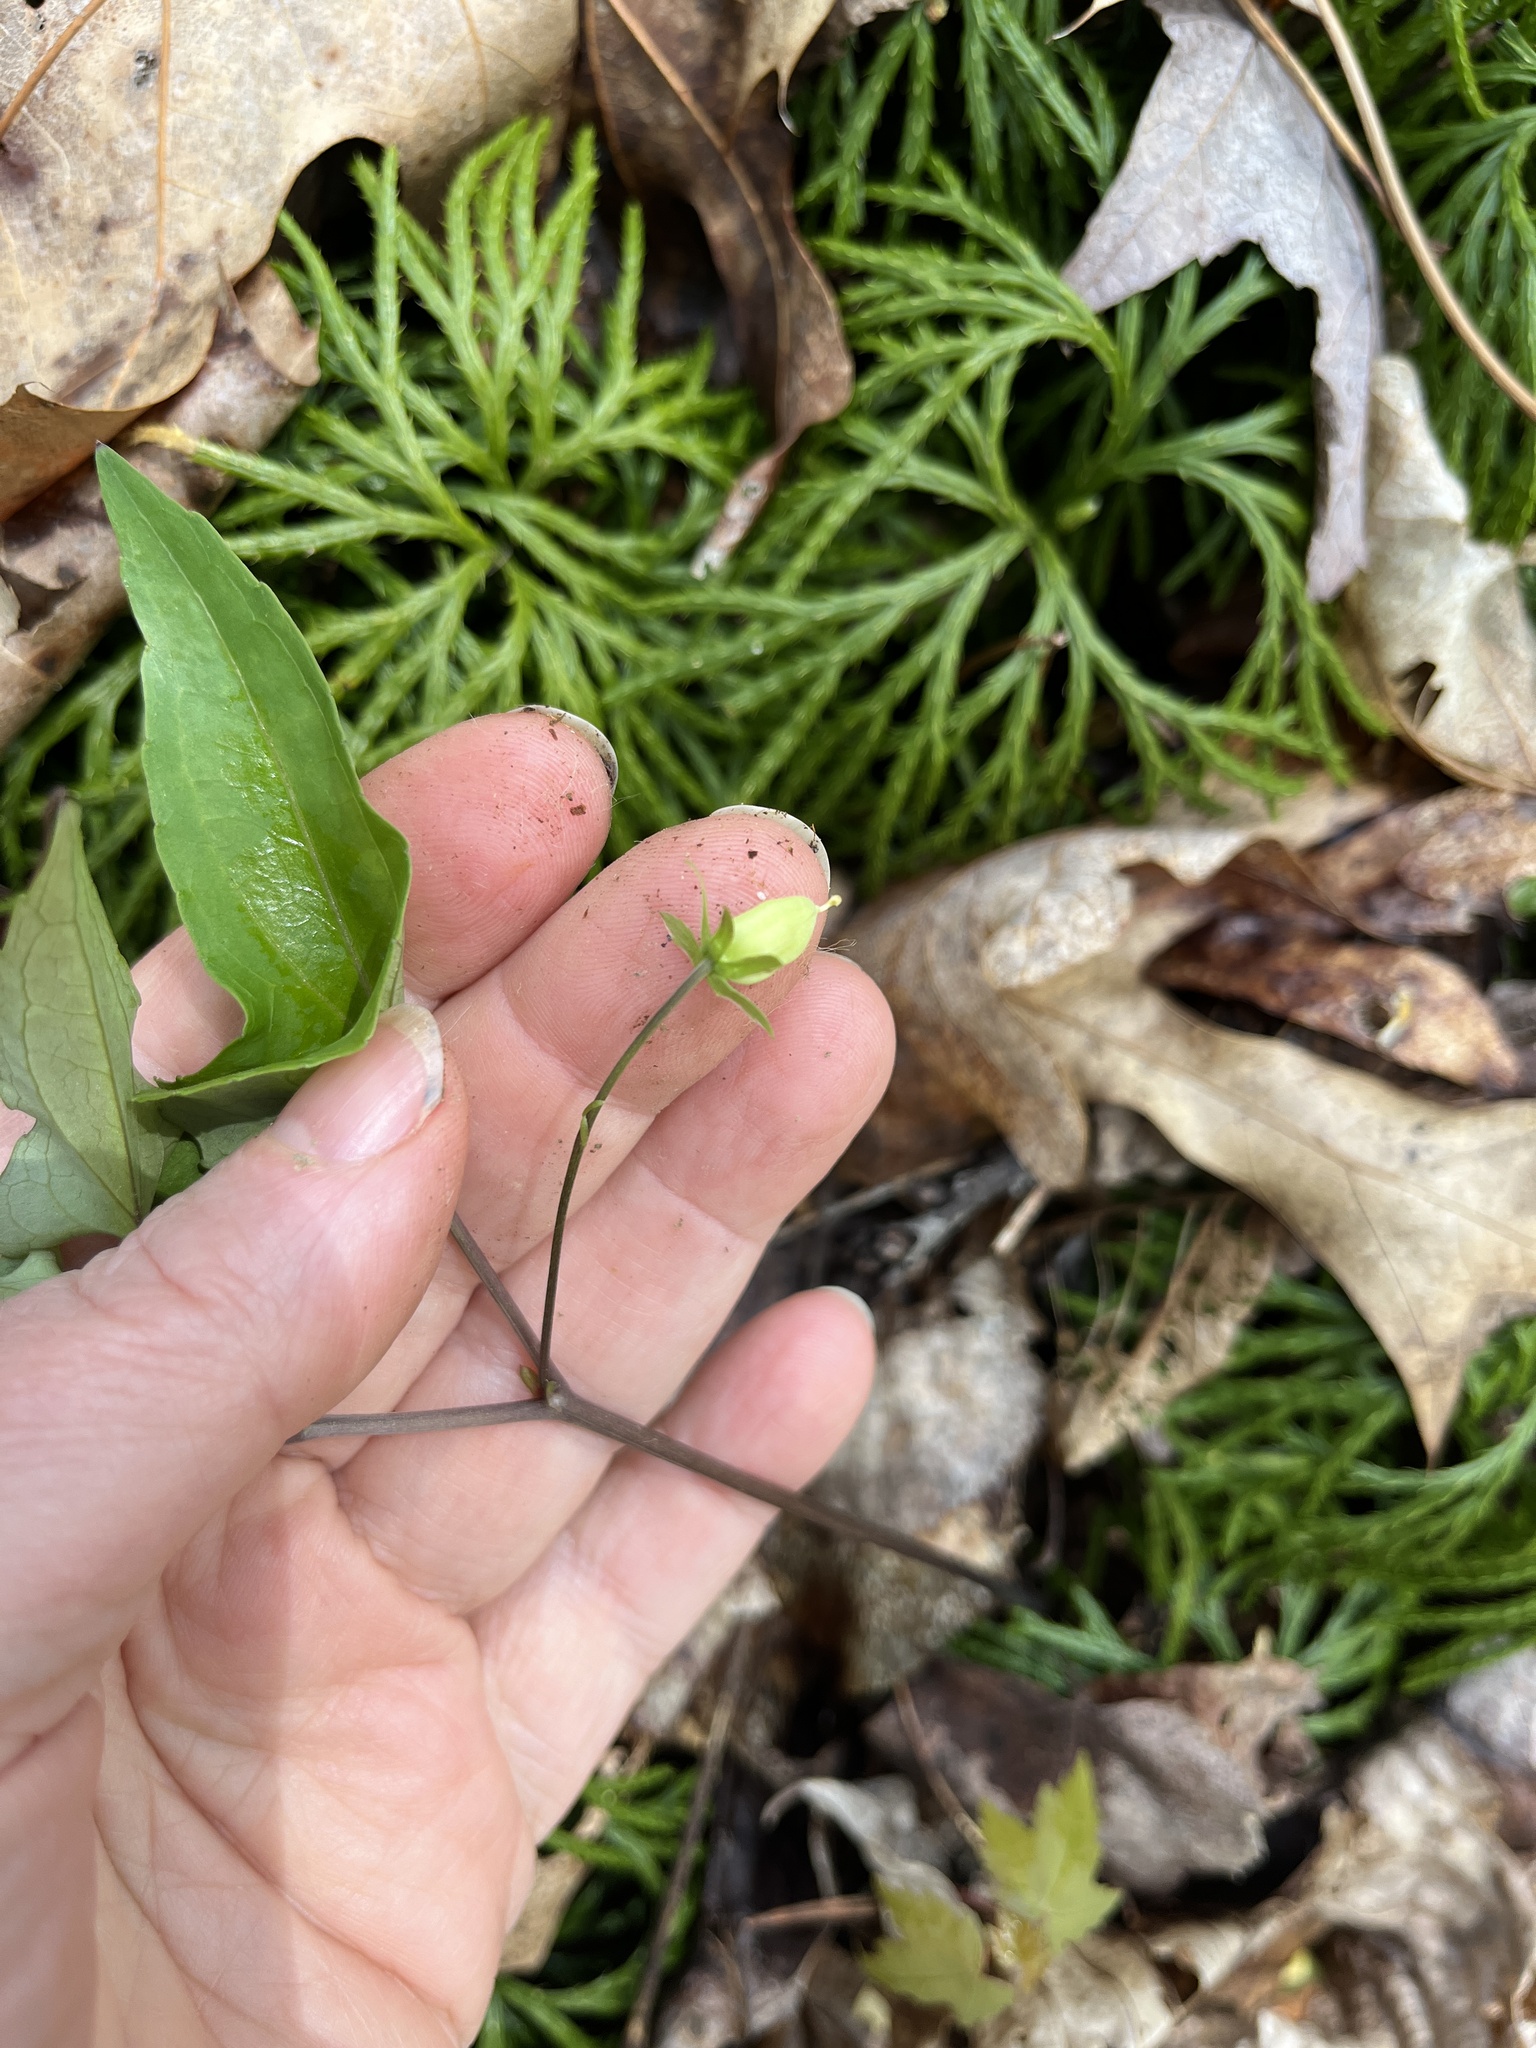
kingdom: Plantae
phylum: Tracheophyta
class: Magnoliopsida
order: Malpighiales
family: Violaceae
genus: Viola
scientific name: Viola hastata
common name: Spear-leaf violet
